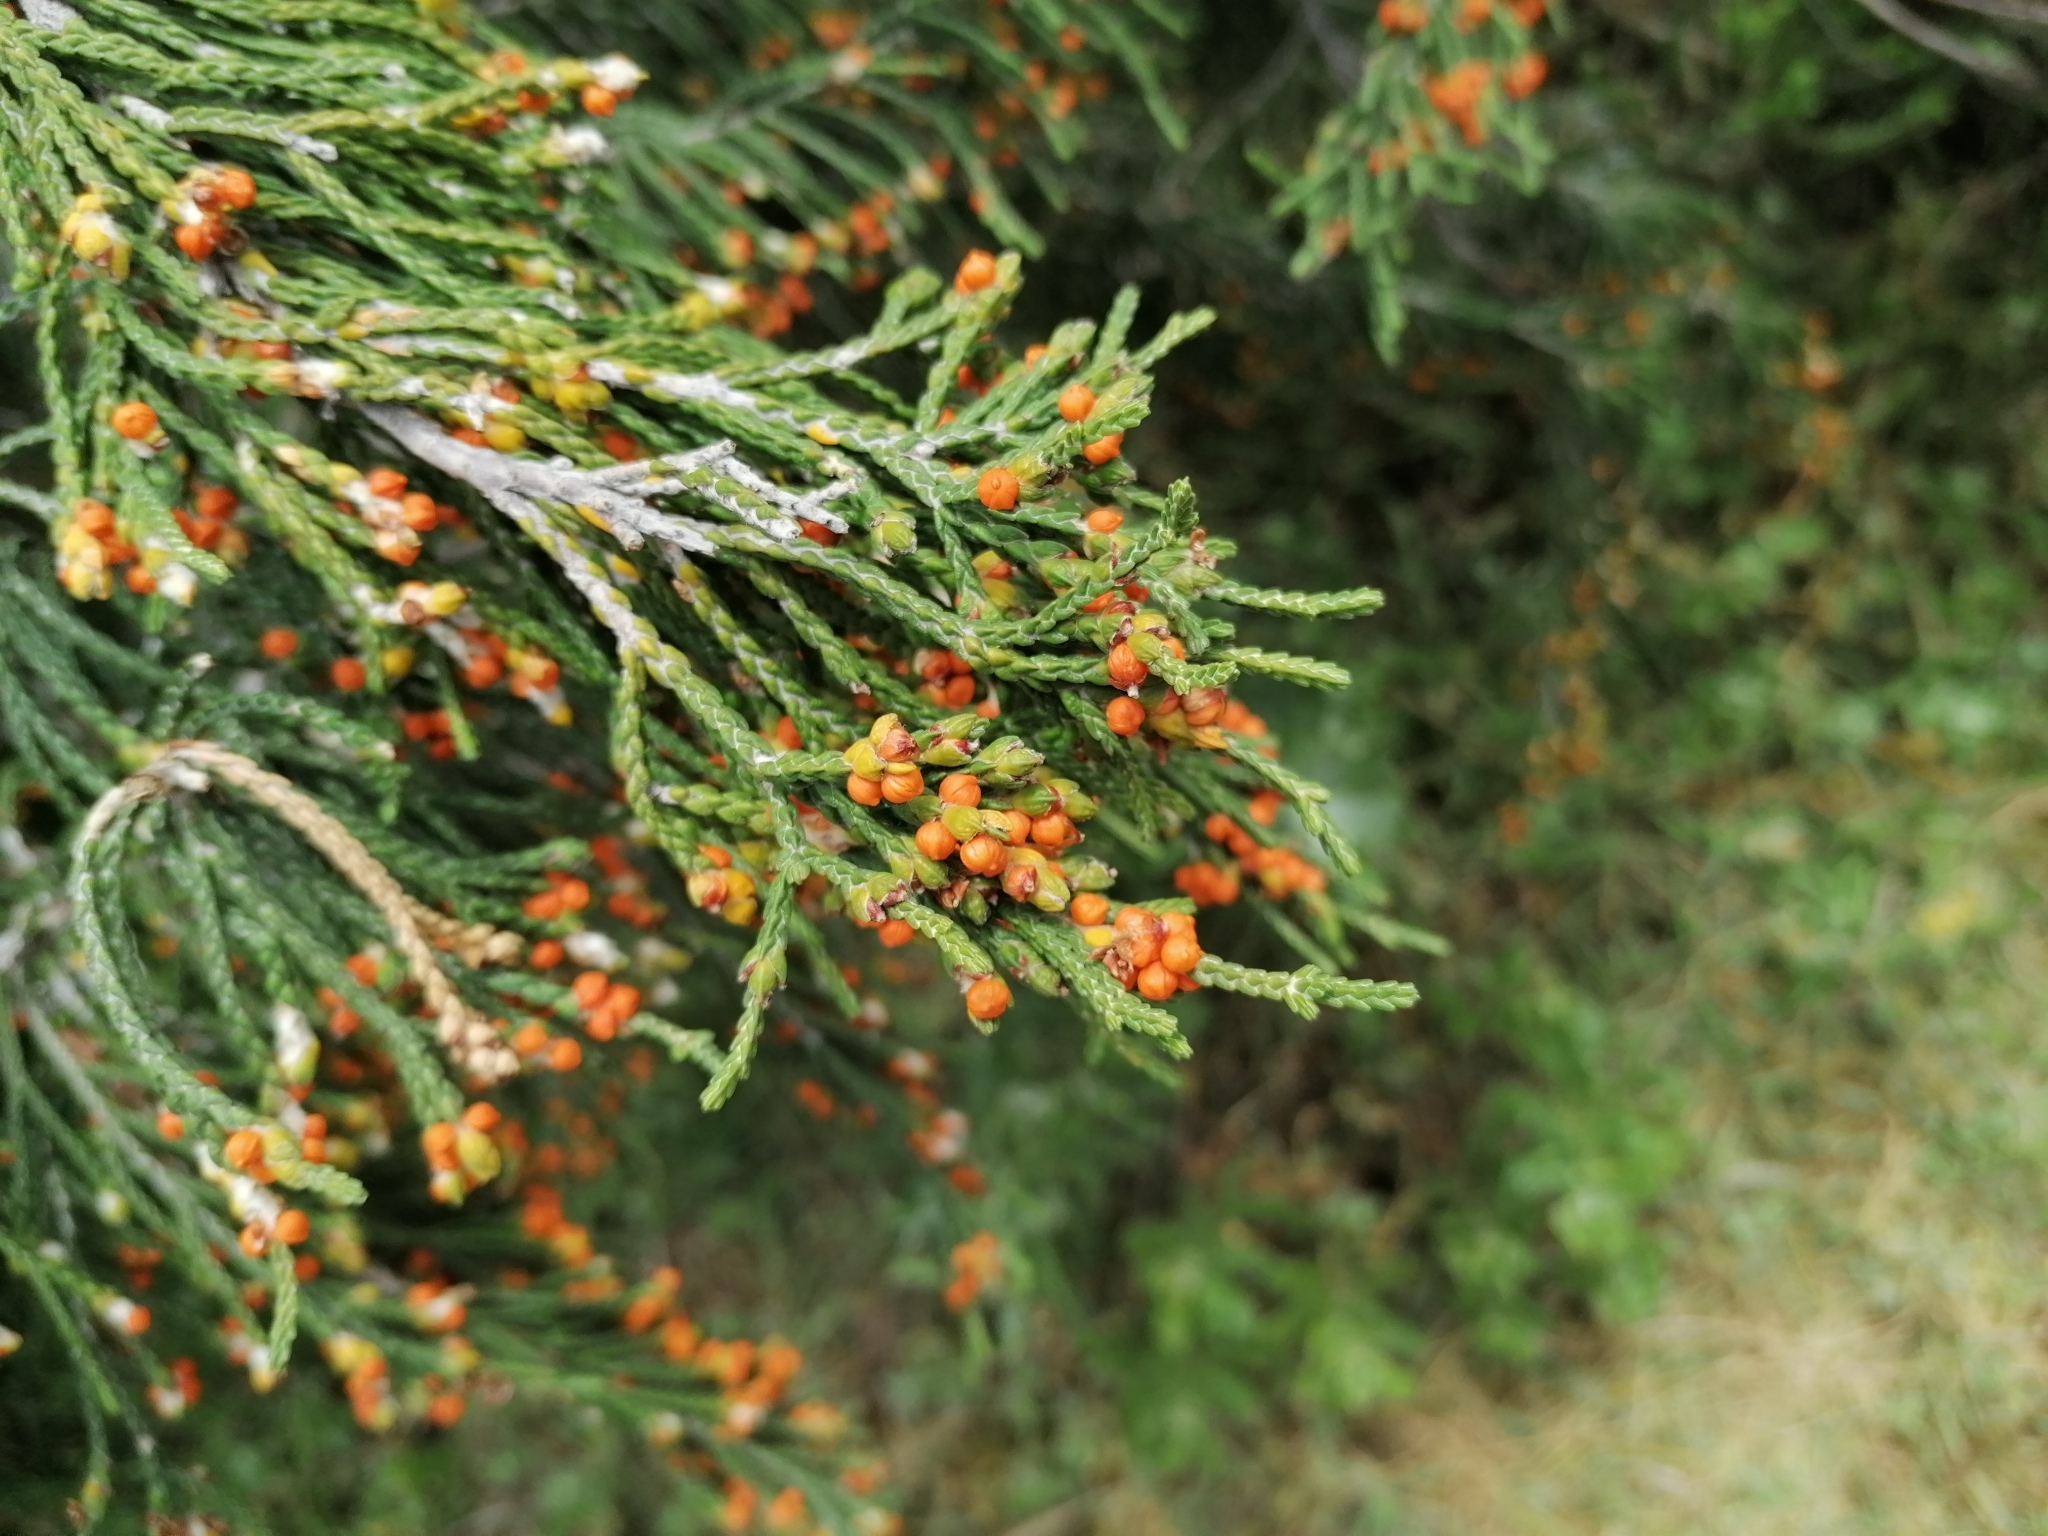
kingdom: Plantae
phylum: Tracheophyta
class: Magnoliopsida
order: Malvales
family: Thymelaeaceae
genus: Passerina
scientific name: Passerina corymbosa
